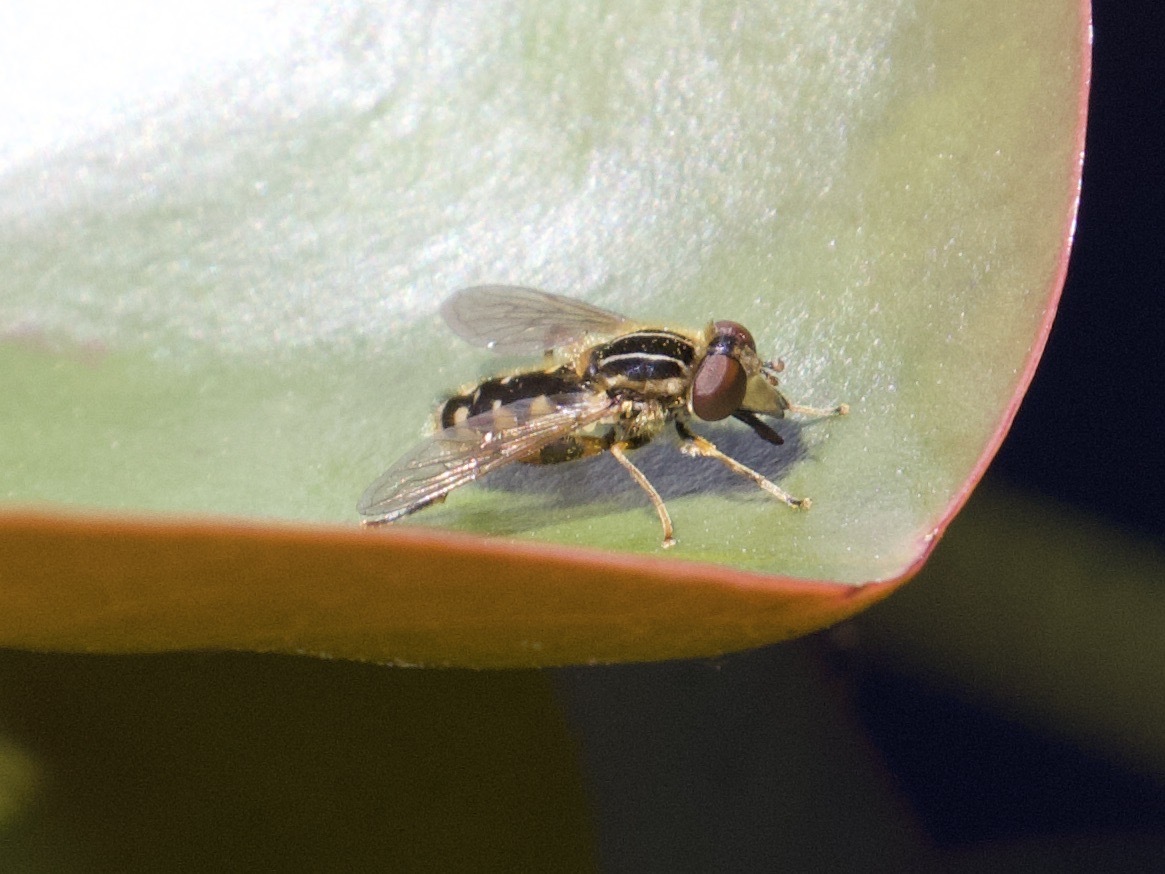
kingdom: Animalia
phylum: Arthropoda
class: Insecta
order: Diptera
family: Syrphidae
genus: Eurimyia
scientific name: Eurimyia lineatus
